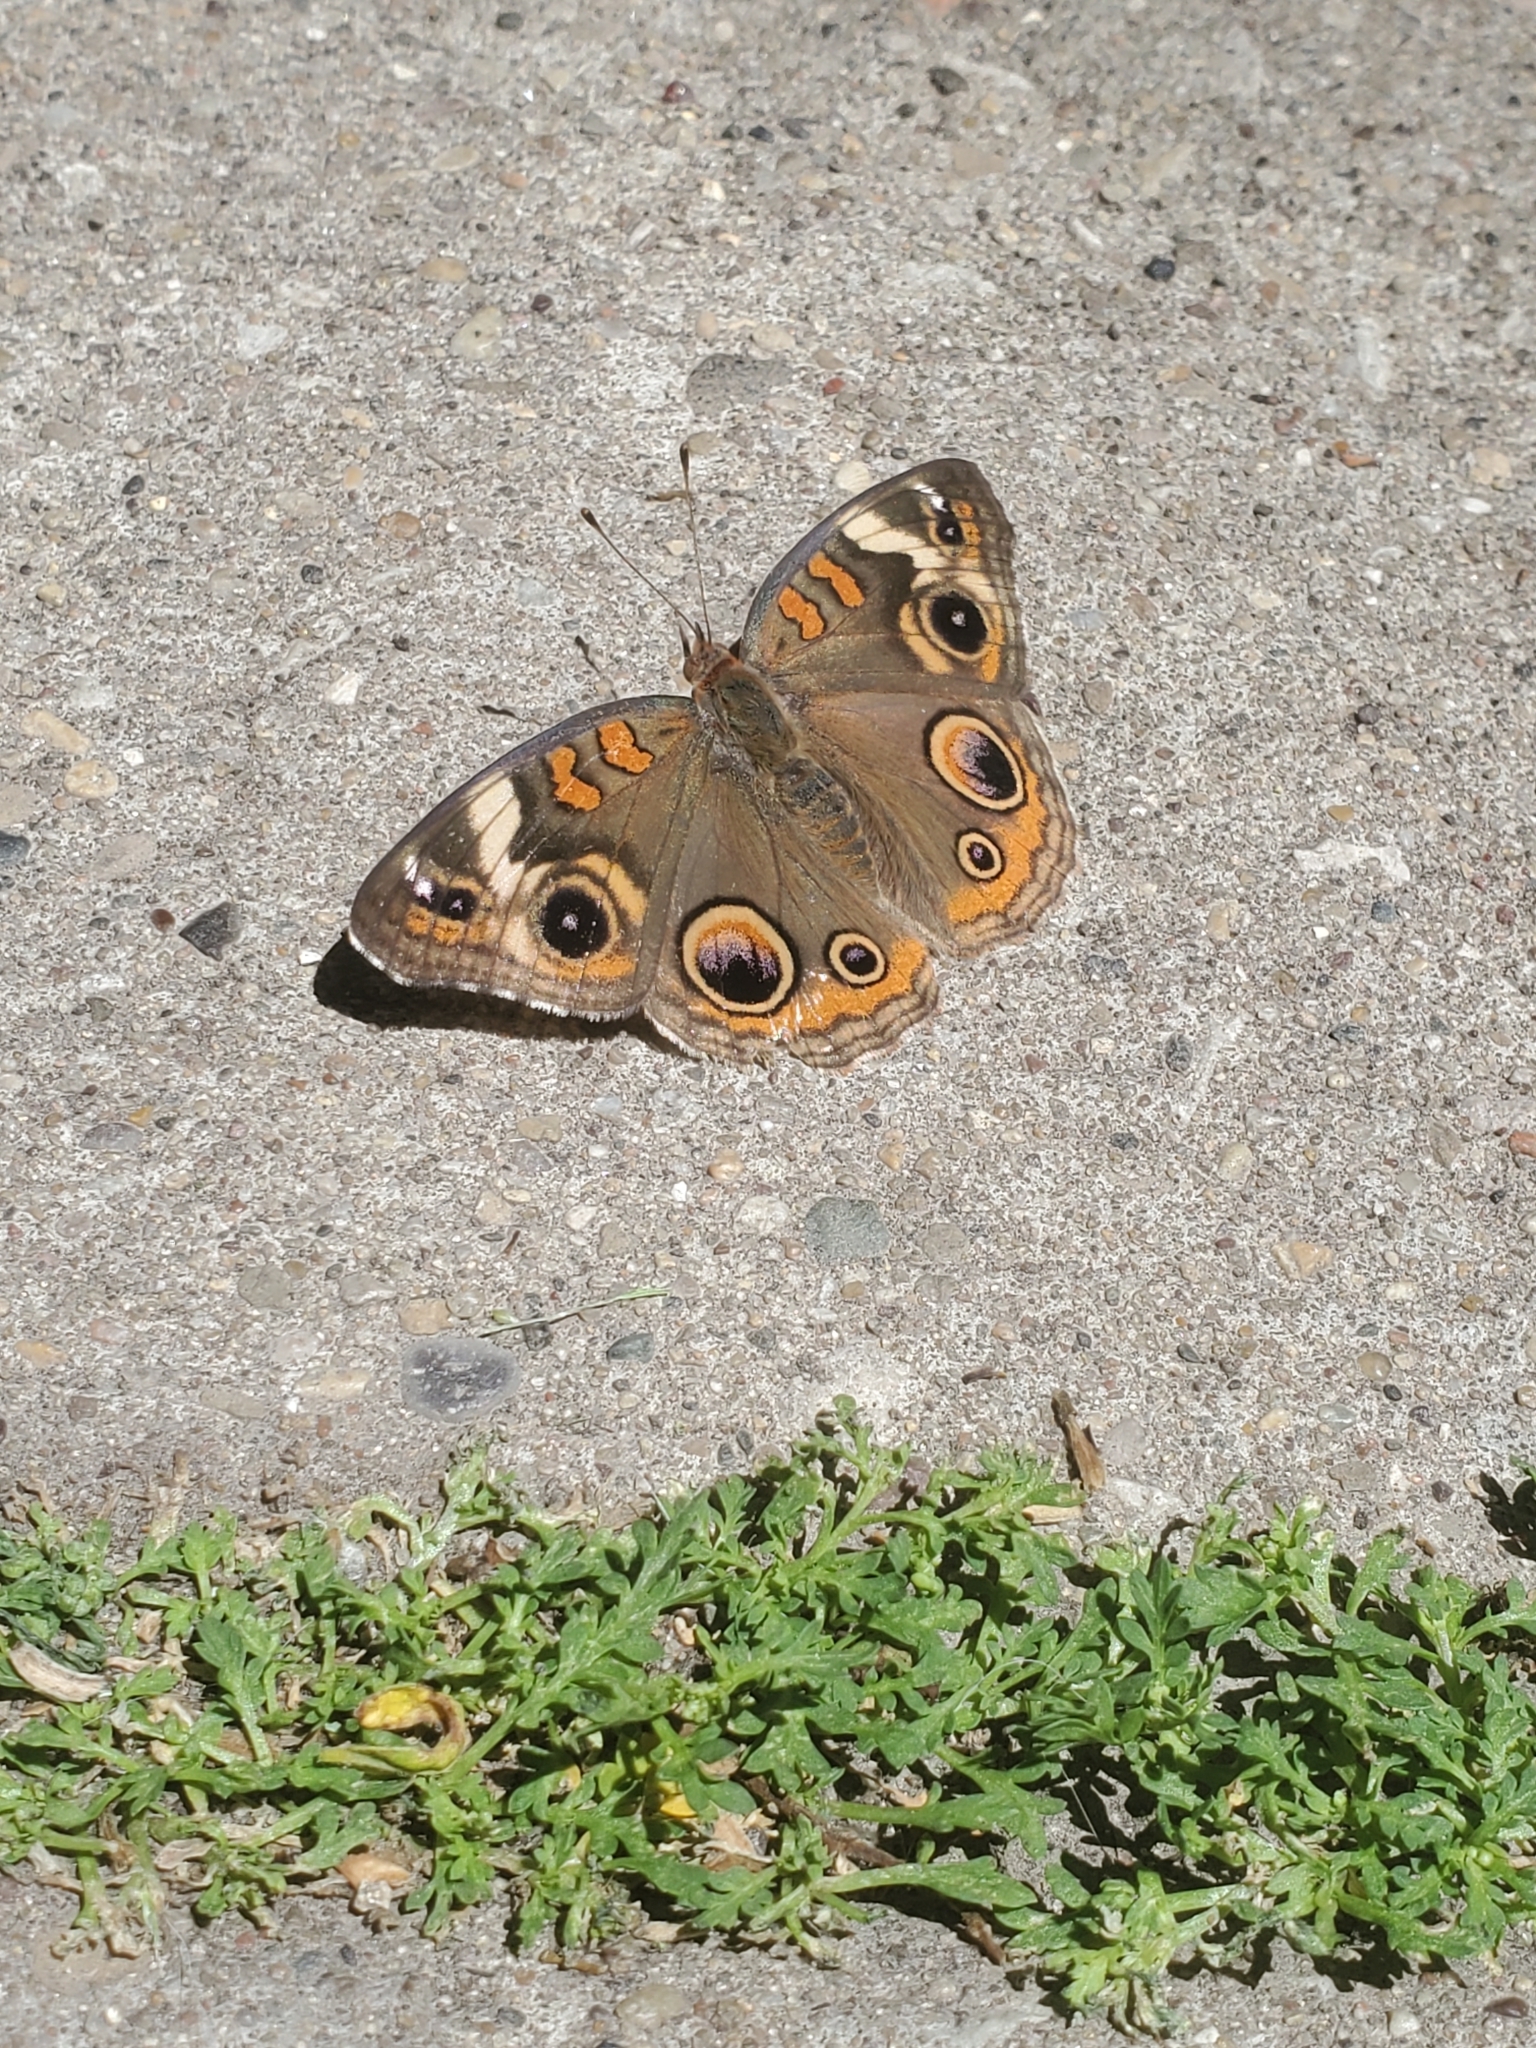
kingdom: Animalia
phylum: Arthropoda
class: Insecta
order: Lepidoptera
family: Nymphalidae
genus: Junonia
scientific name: Junonia coenia
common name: Common buckeye
